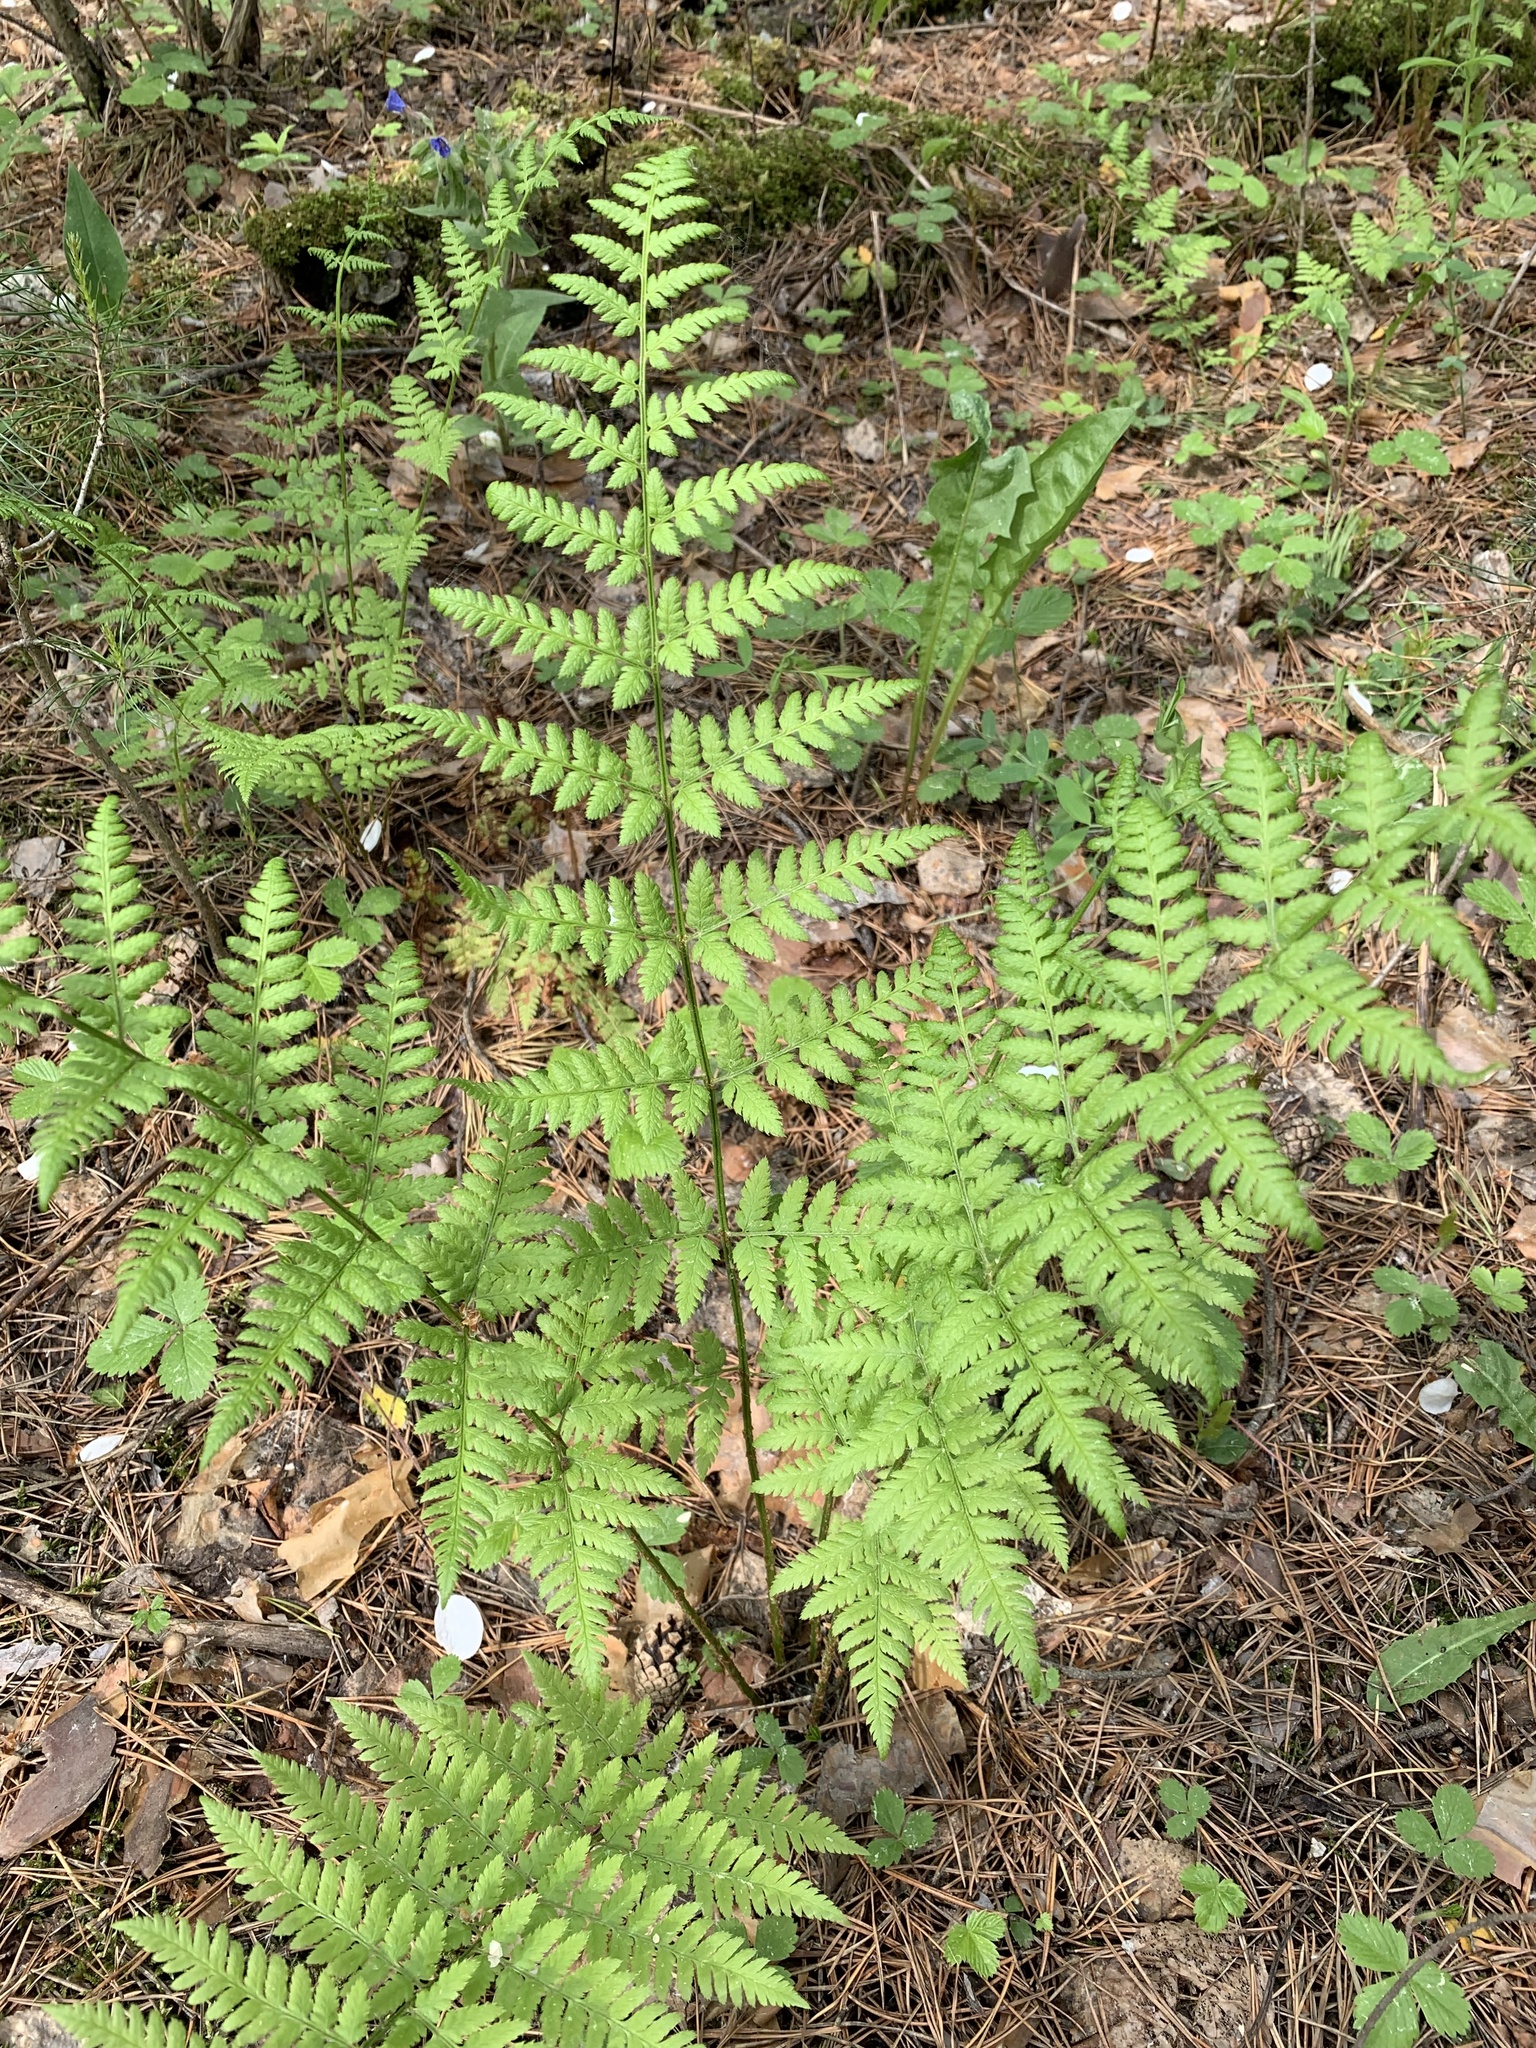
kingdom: Plantae
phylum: Tracheophyta
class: Polypodiopsida
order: Polypodiales
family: Dryopteridaceae
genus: Dryopteris
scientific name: Dryopteris carthusiana
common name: Narrow buckler-fern
